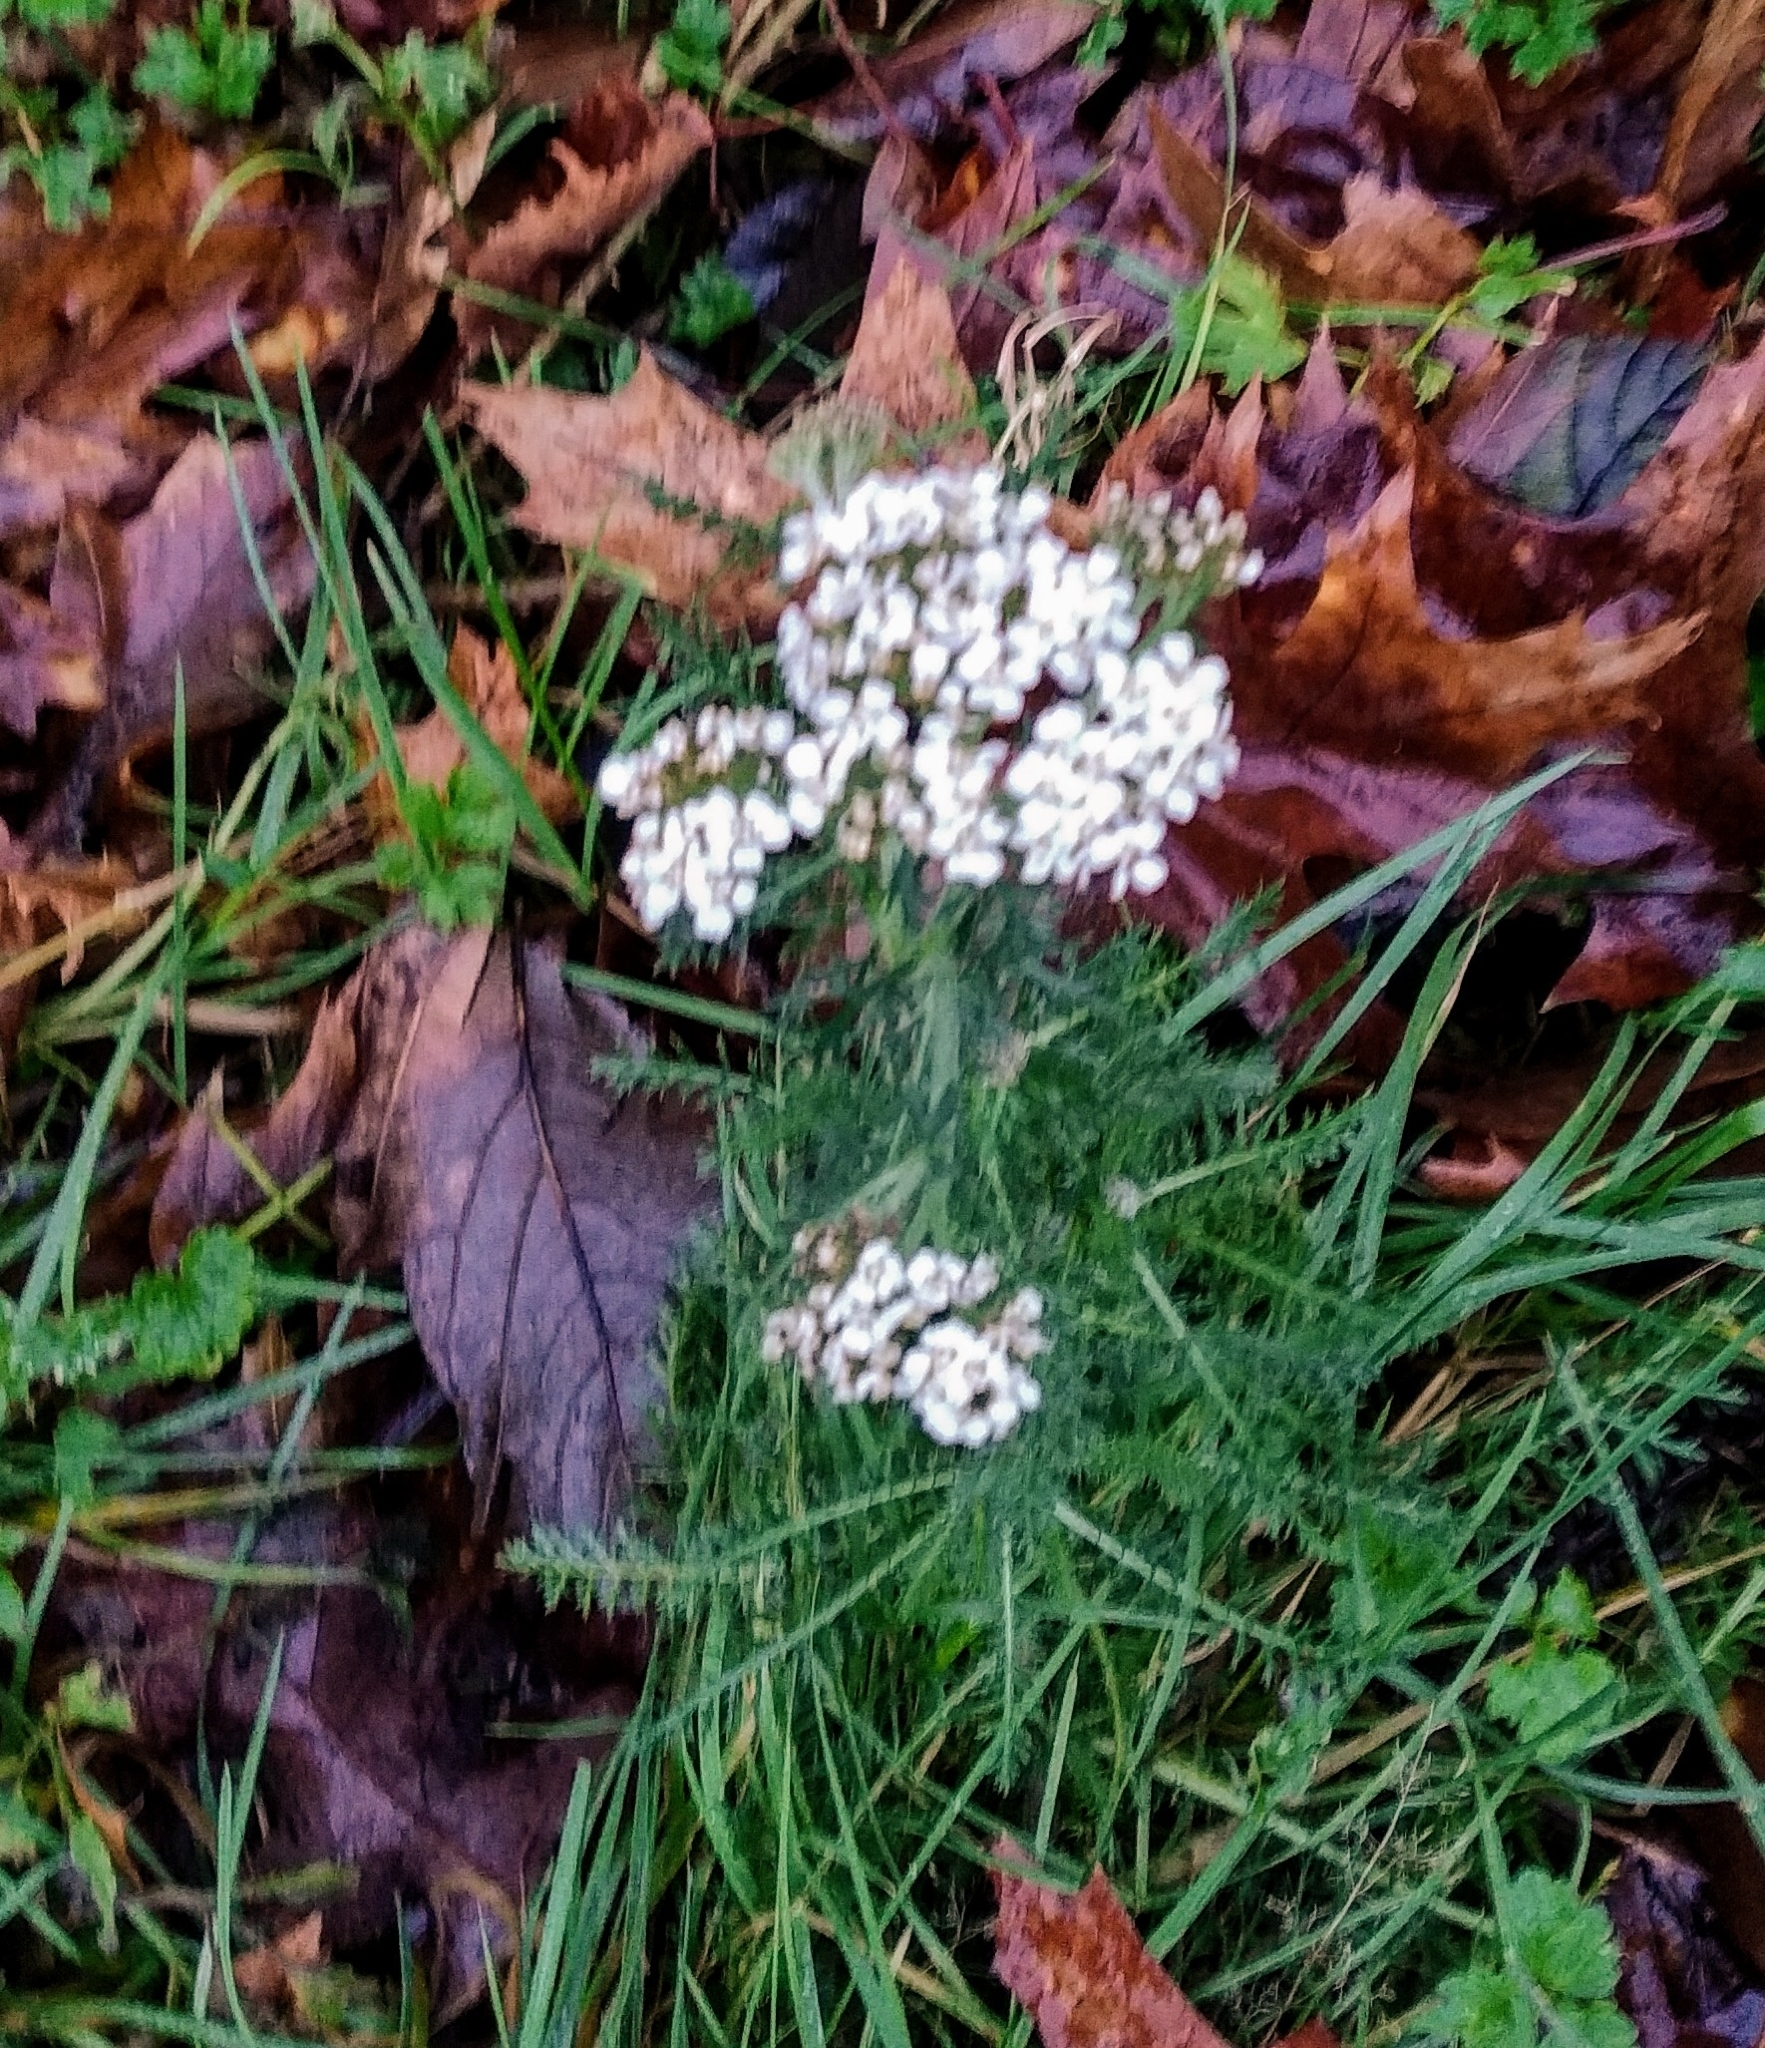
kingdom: Plantae
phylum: Tracheophyta
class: Magnoliopsida
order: Asterales
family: Asteraceae
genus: Achillea
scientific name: Achillea millefolium
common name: Yarrow
